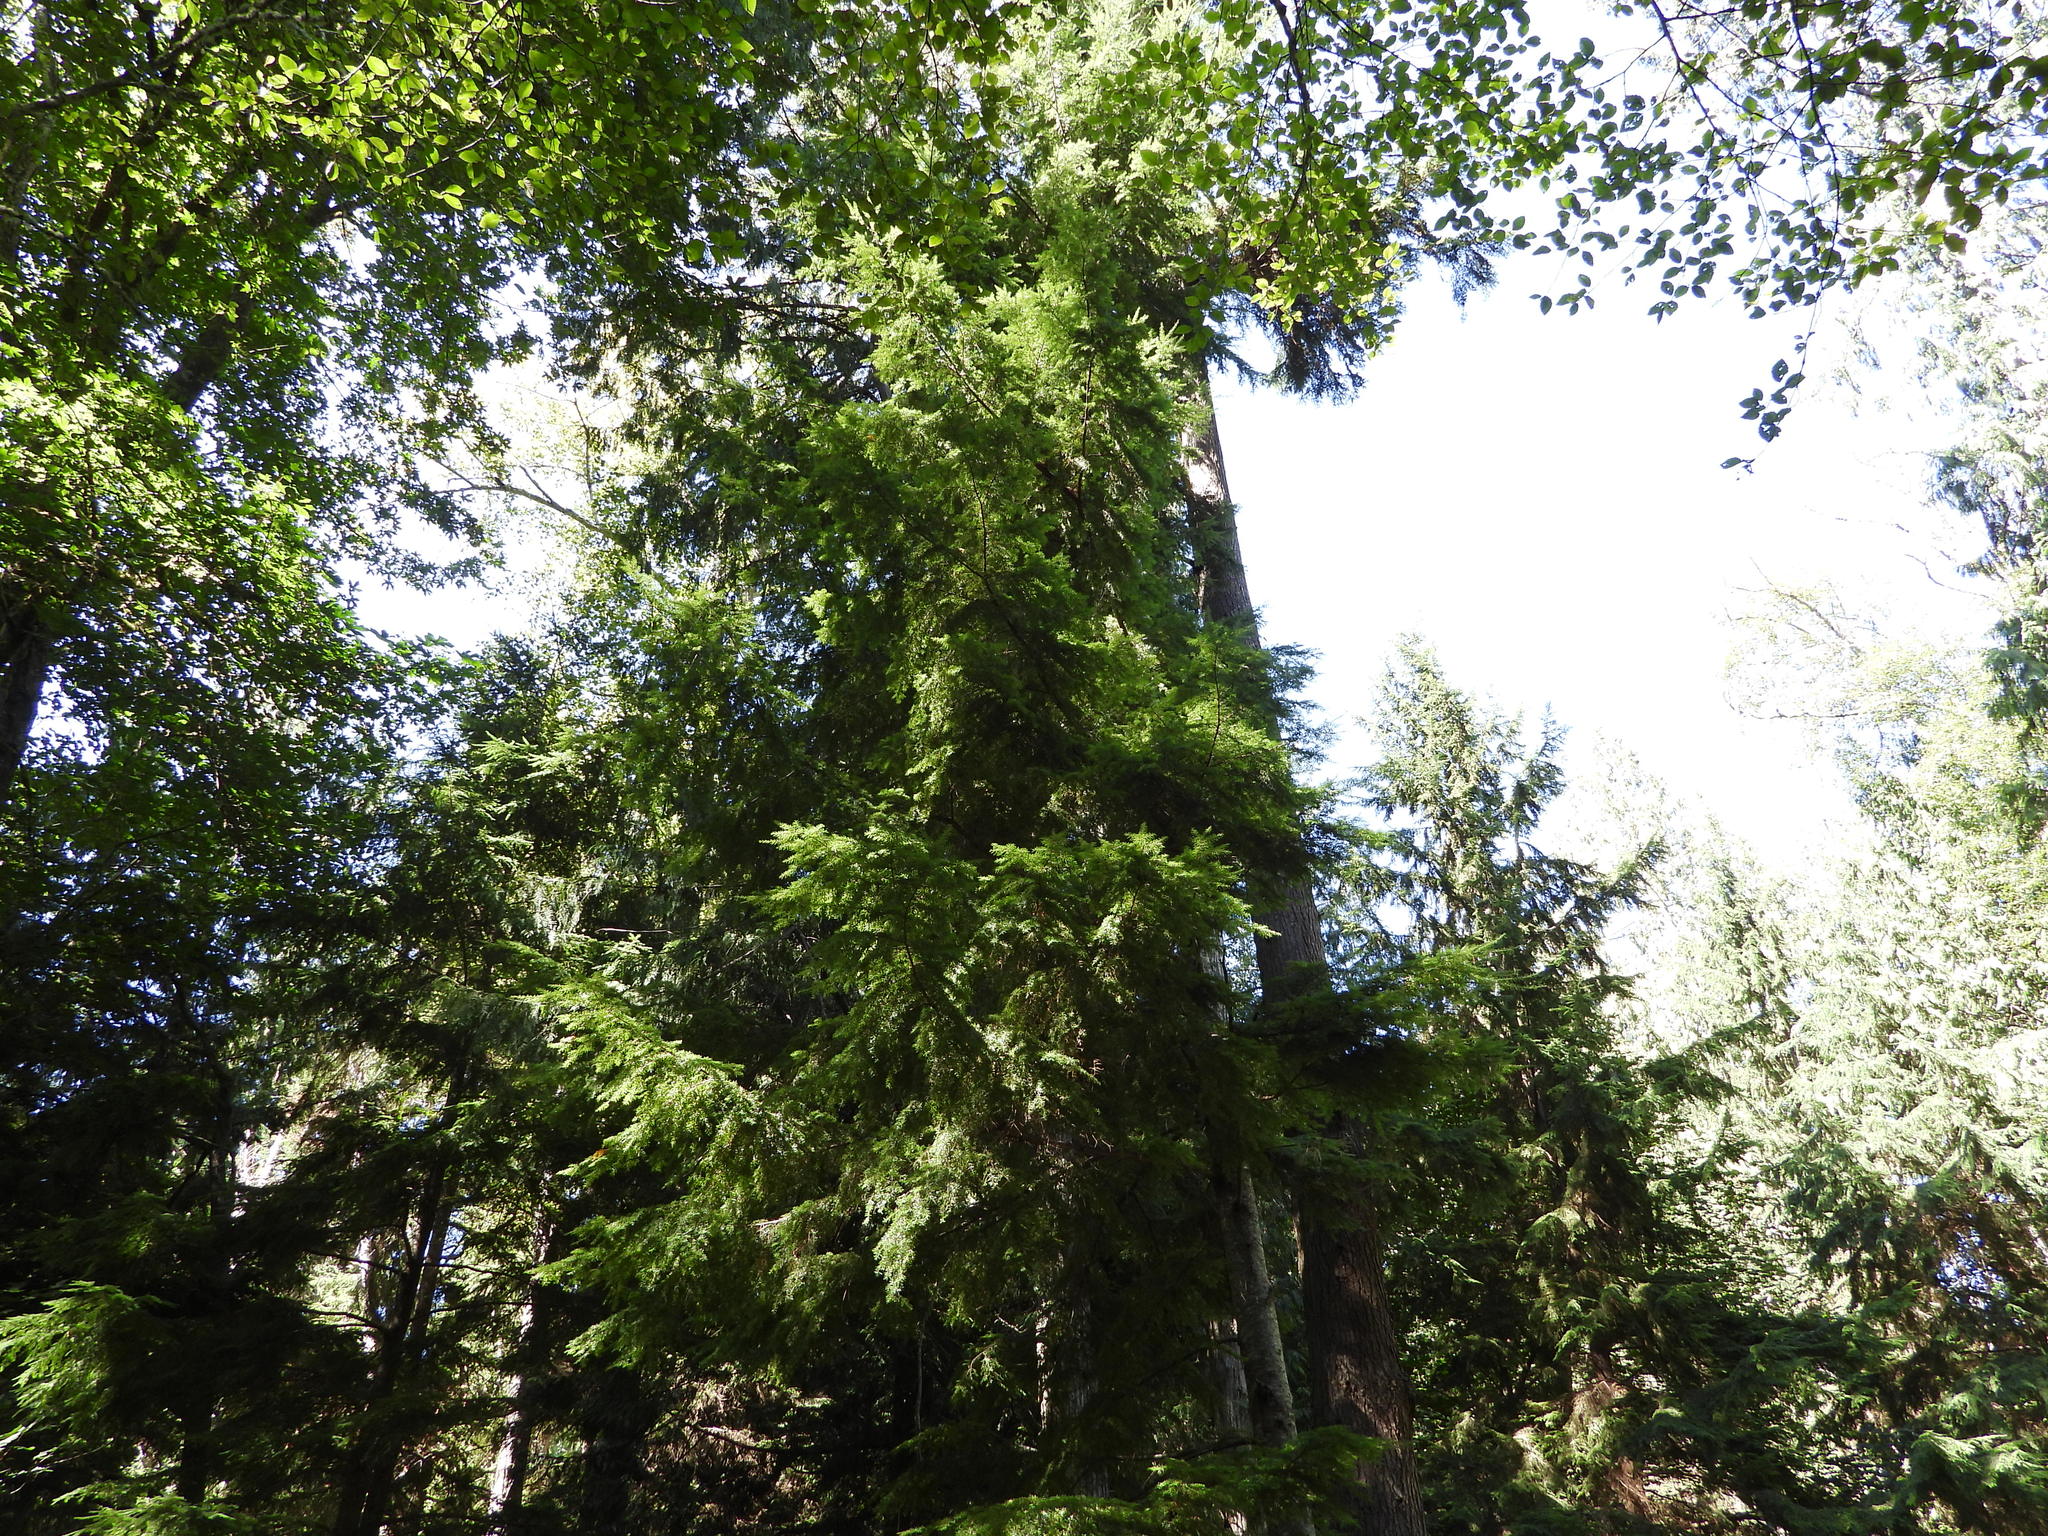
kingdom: Plantae
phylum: Tracheophyta
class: Pinopsida
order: Pinales
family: Pinaceae
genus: Tsuga
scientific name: Tsuga heterophylla
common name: Western hemlock
